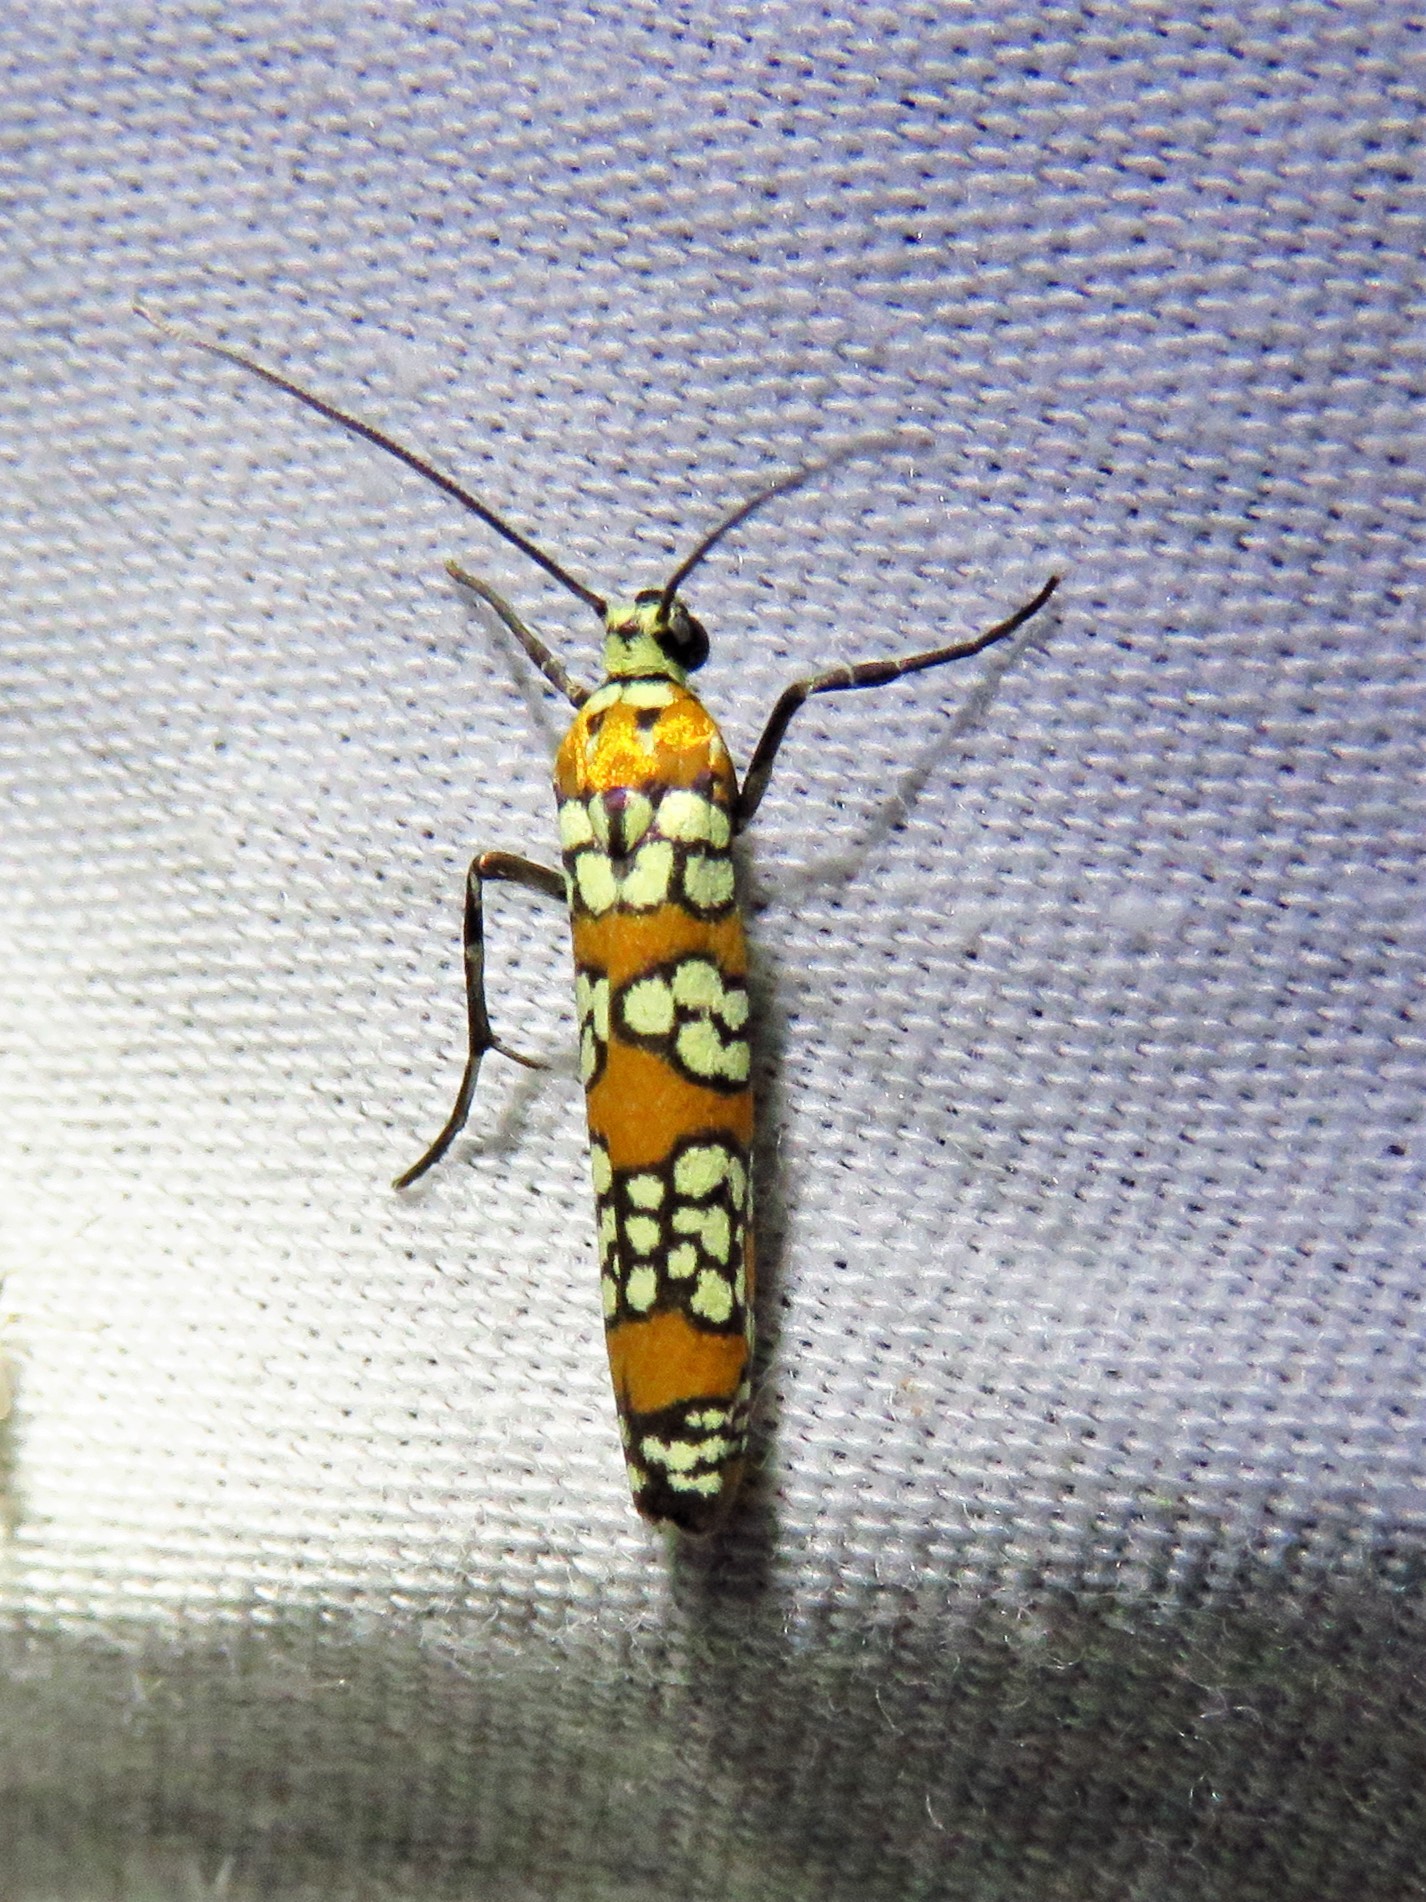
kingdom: Animalia
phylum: Arthropoda
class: Insecta
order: Lepidoptera
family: Attevidae
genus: Atteva
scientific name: Atteva punctella
